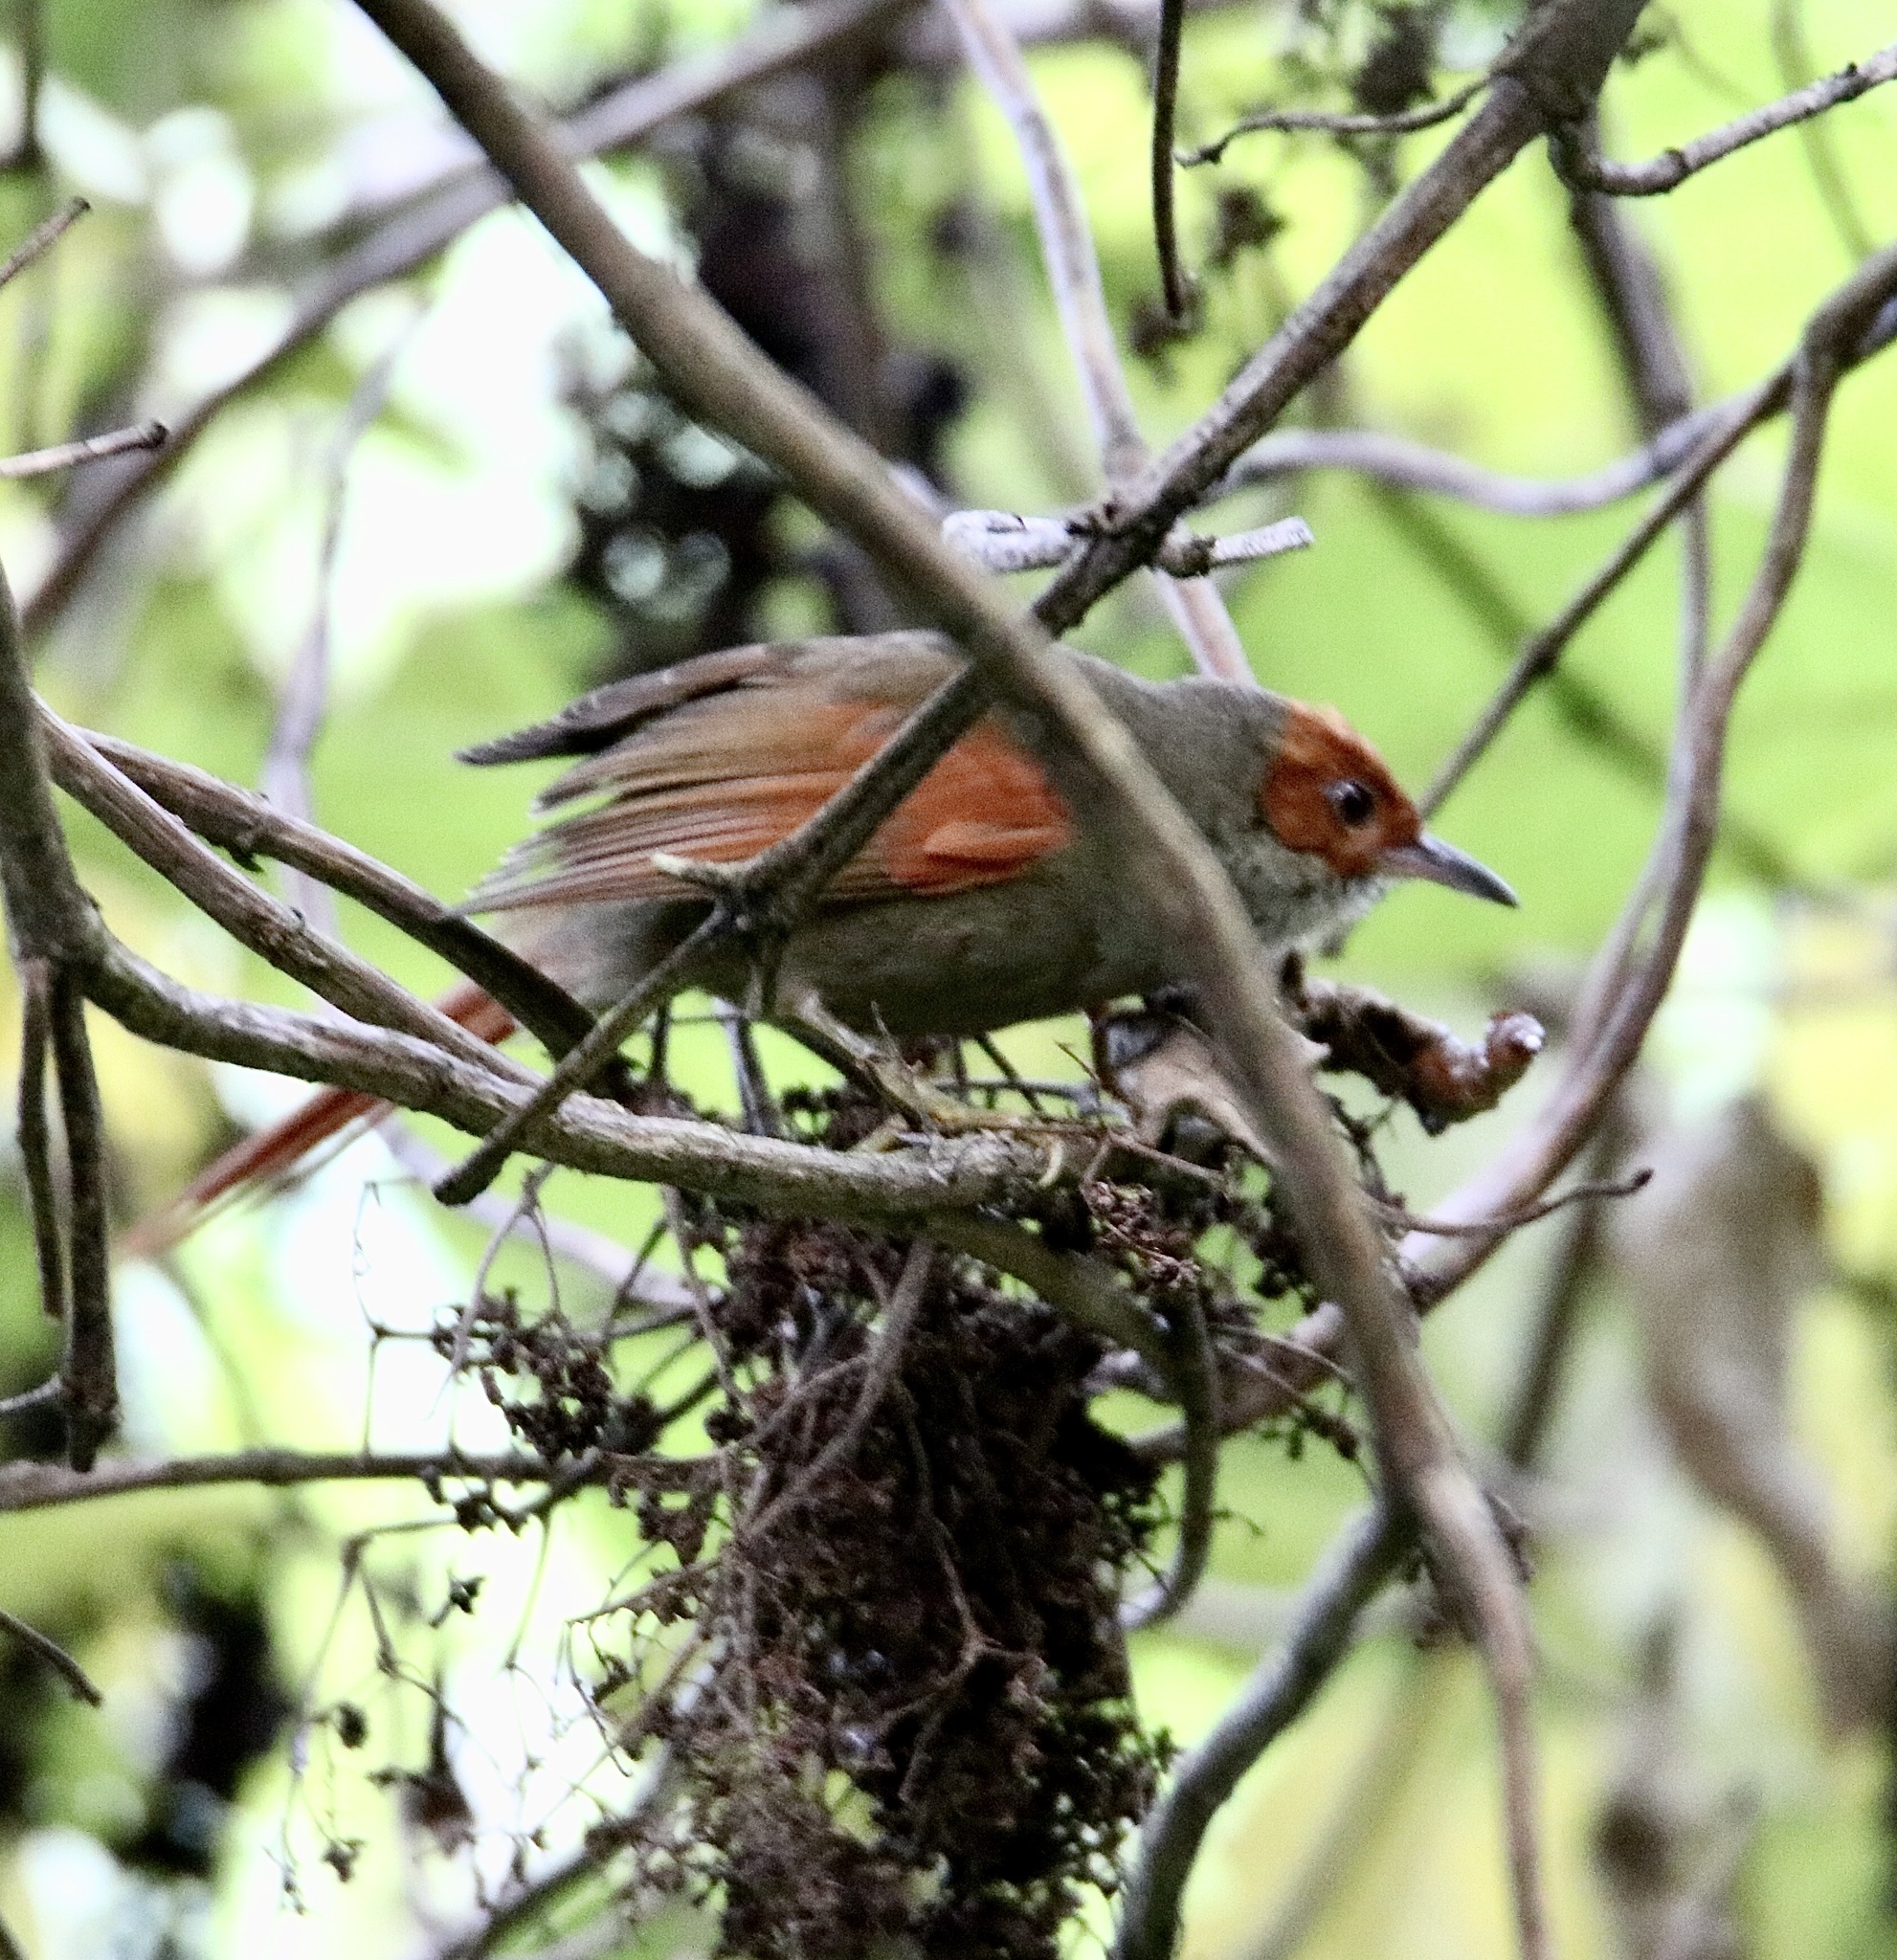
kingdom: Animalia
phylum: Chordata
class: Aves
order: Passeriformes
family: Furnariidae
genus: Cranioleuca
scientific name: Cranioleuca erythrops
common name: Red-faced spinetail
